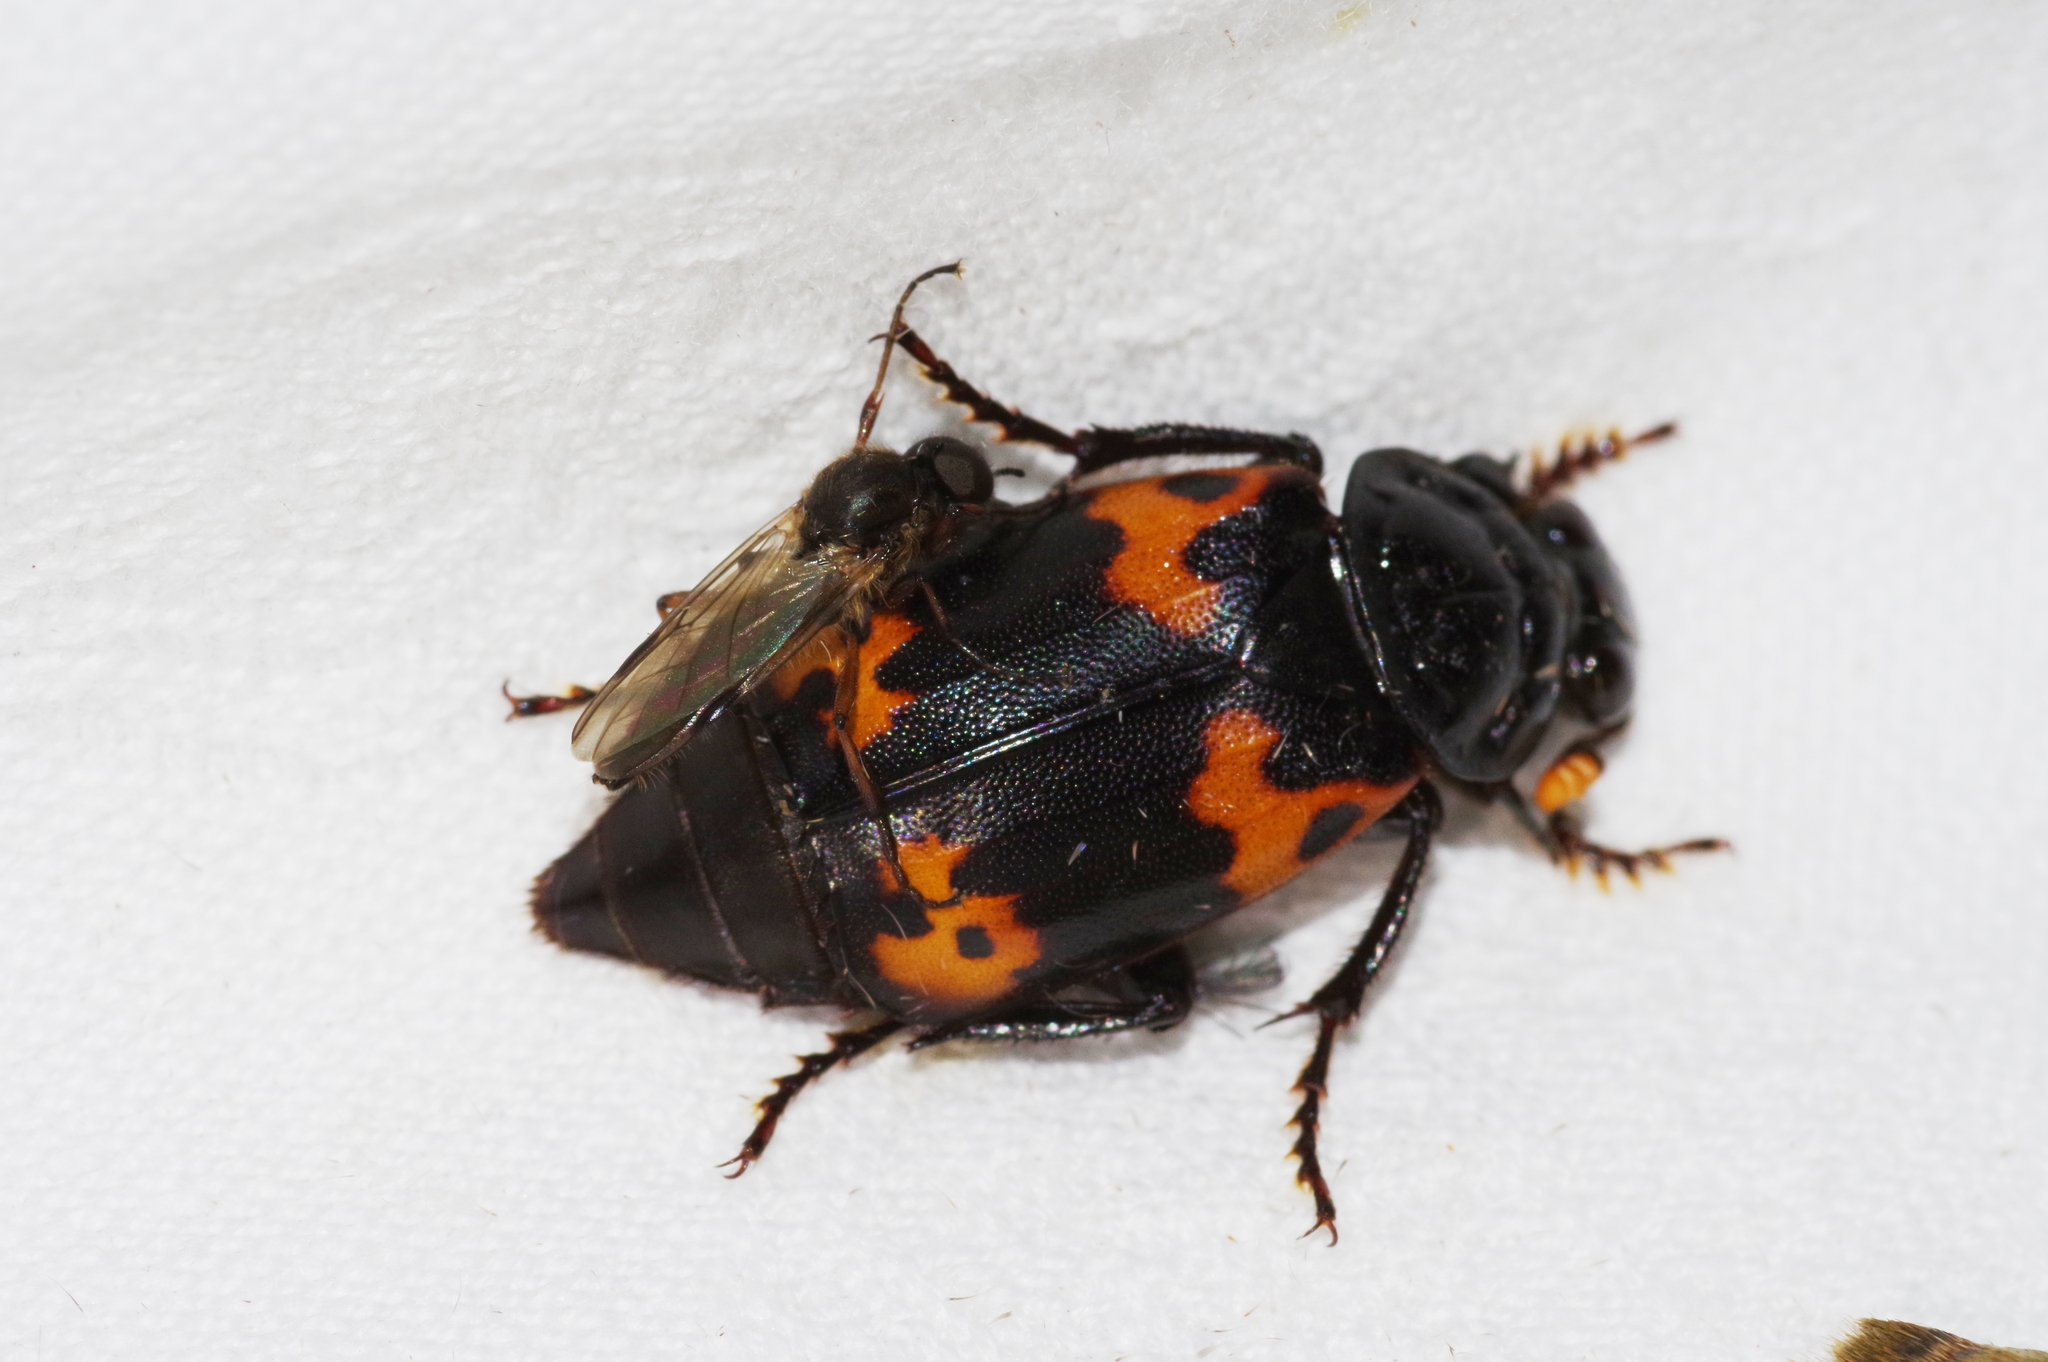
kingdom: Animalia
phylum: Arthropoda
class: Insecta
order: Coleoptera
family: Staphylinidae
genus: Nicrophorus
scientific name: Nicrophorus nepalensis
